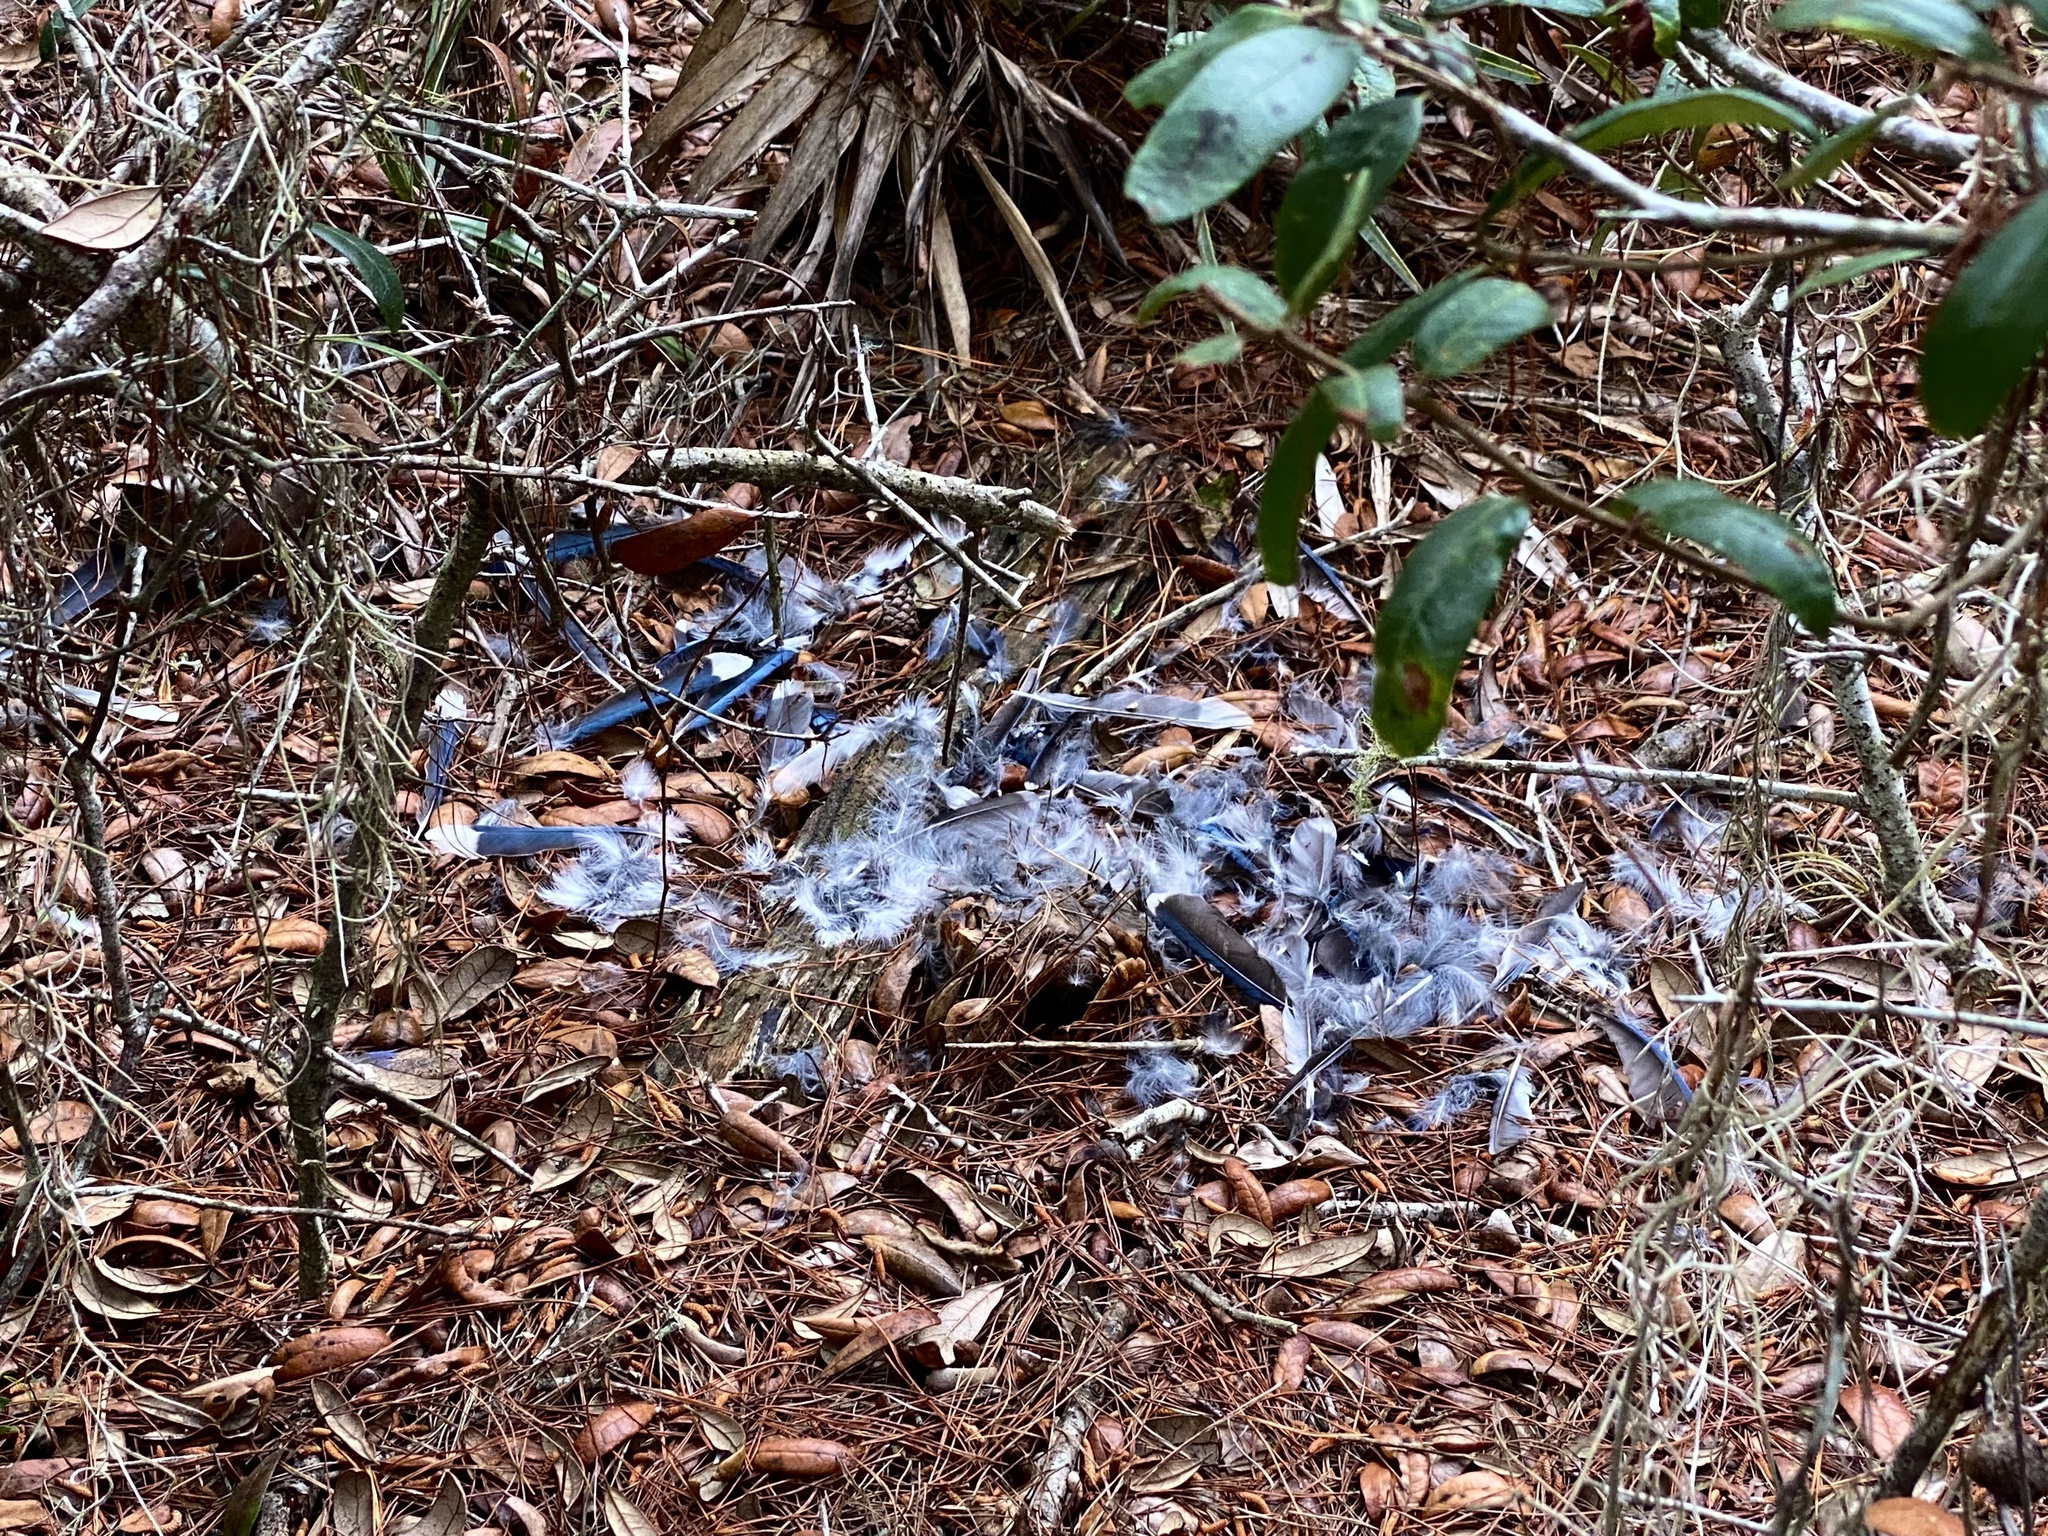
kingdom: Animalia
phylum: Chordata
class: Aves
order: Passeriformes
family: Corvidae
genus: Cyanocitta
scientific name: Cyanocitta cristata
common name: Blue jay
